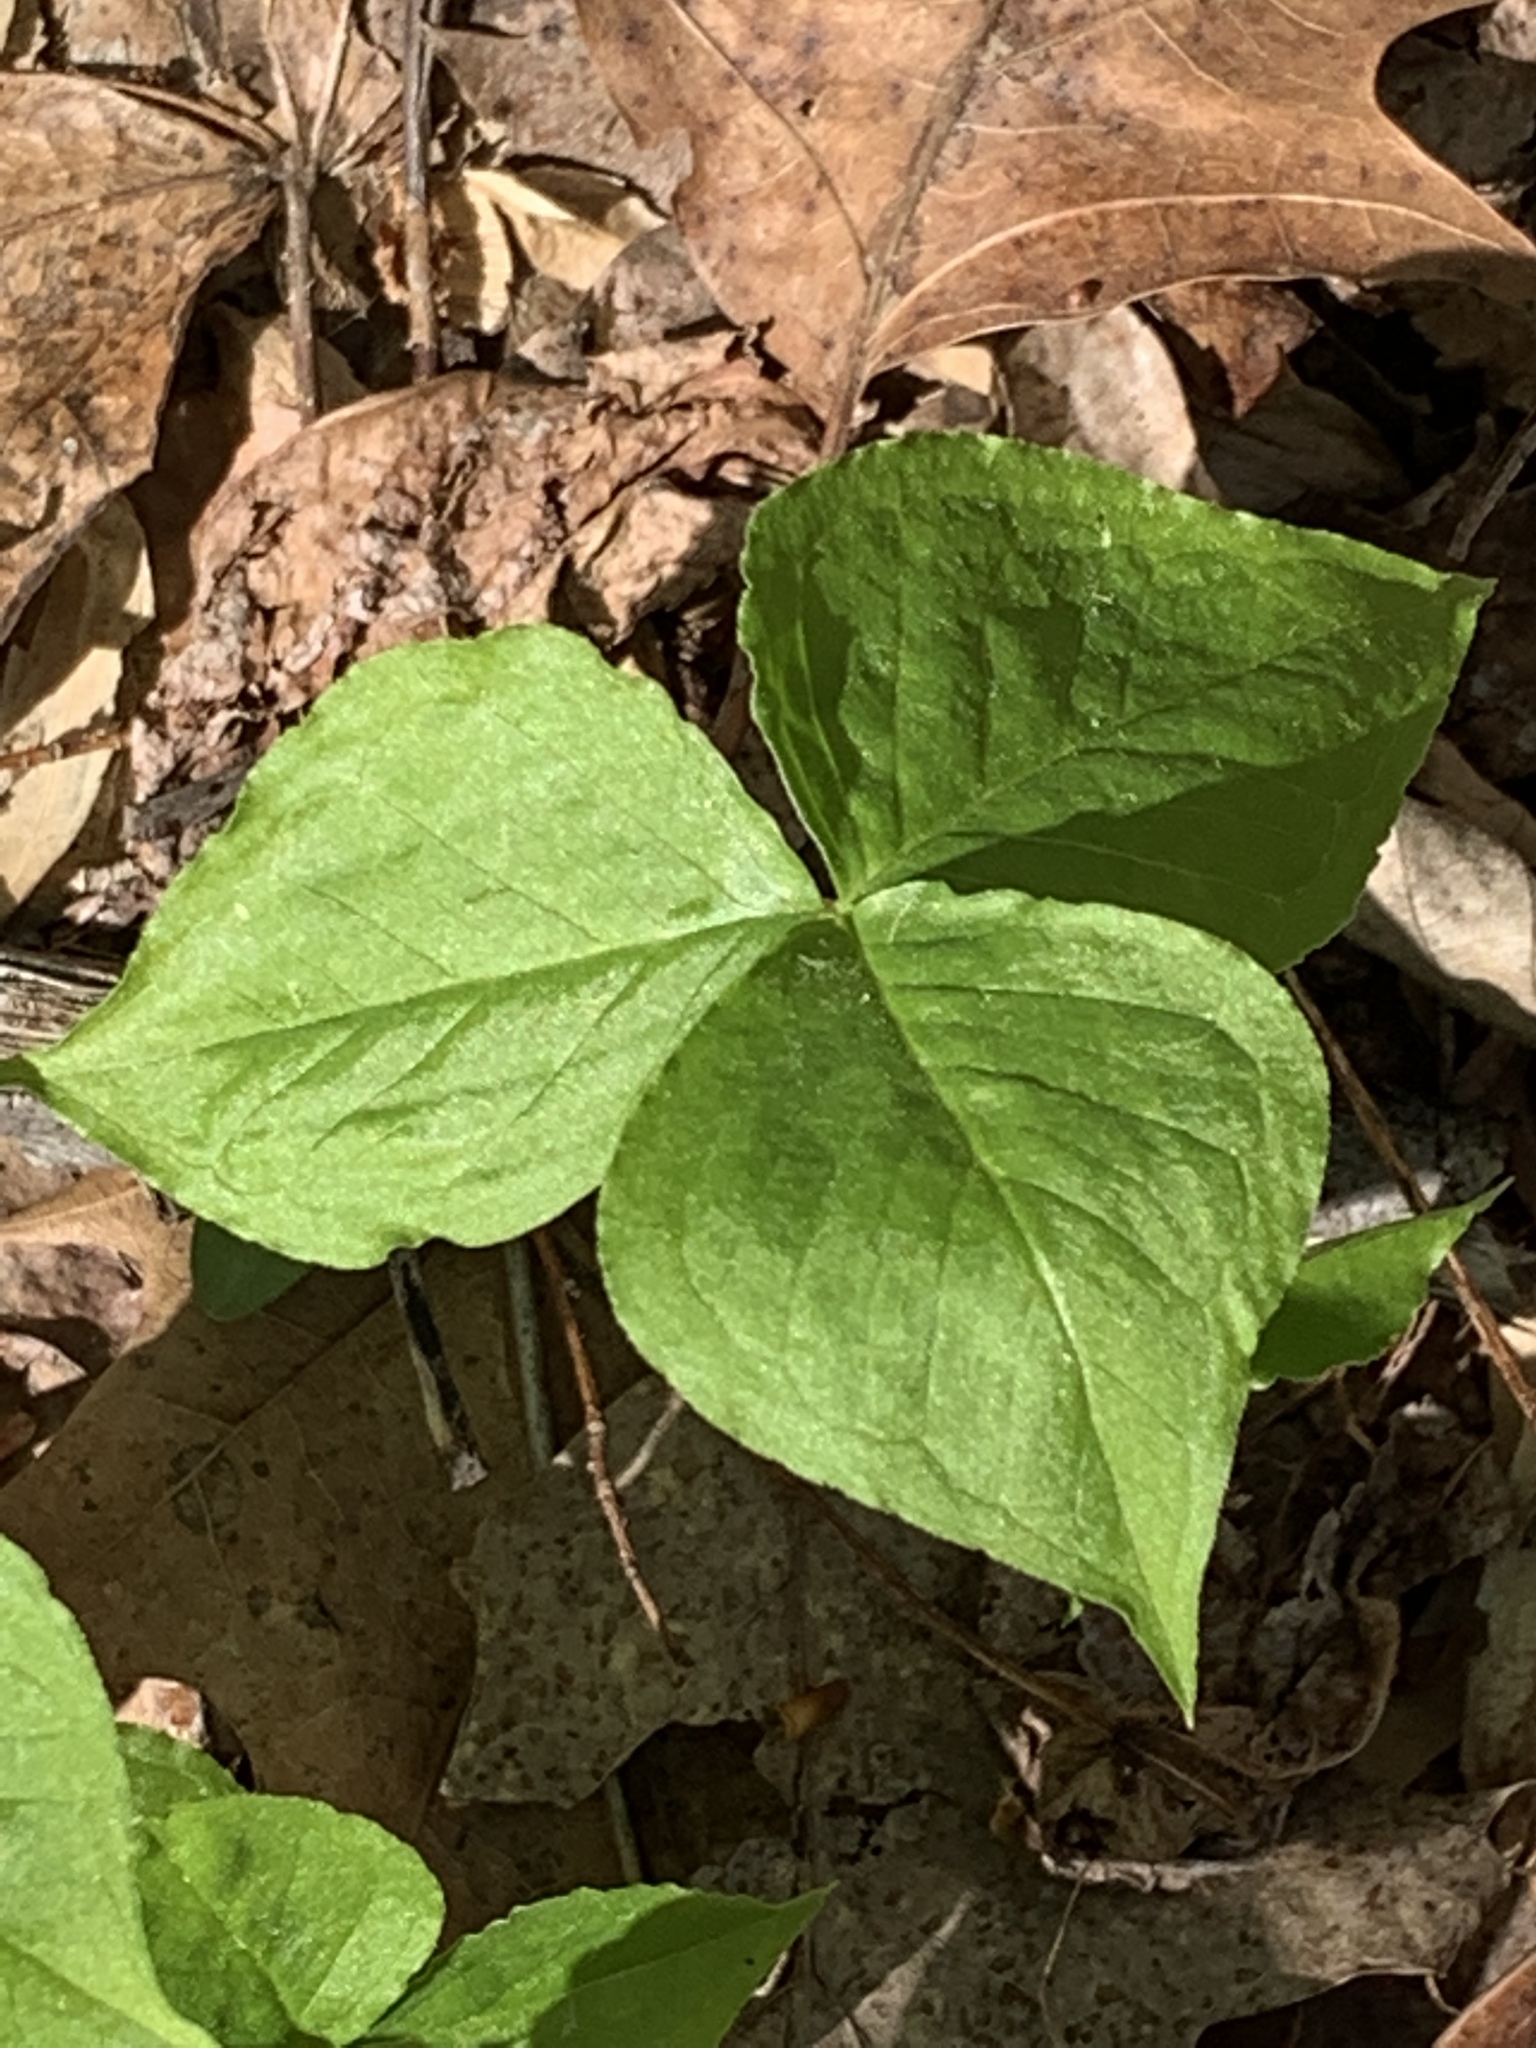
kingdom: Plantae
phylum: Tracheophyta
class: Liliopsida
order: Alismatales
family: Araceae
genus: Arisaema
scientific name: Arisaema triphyllum
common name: Jack-in-the-pulpit
